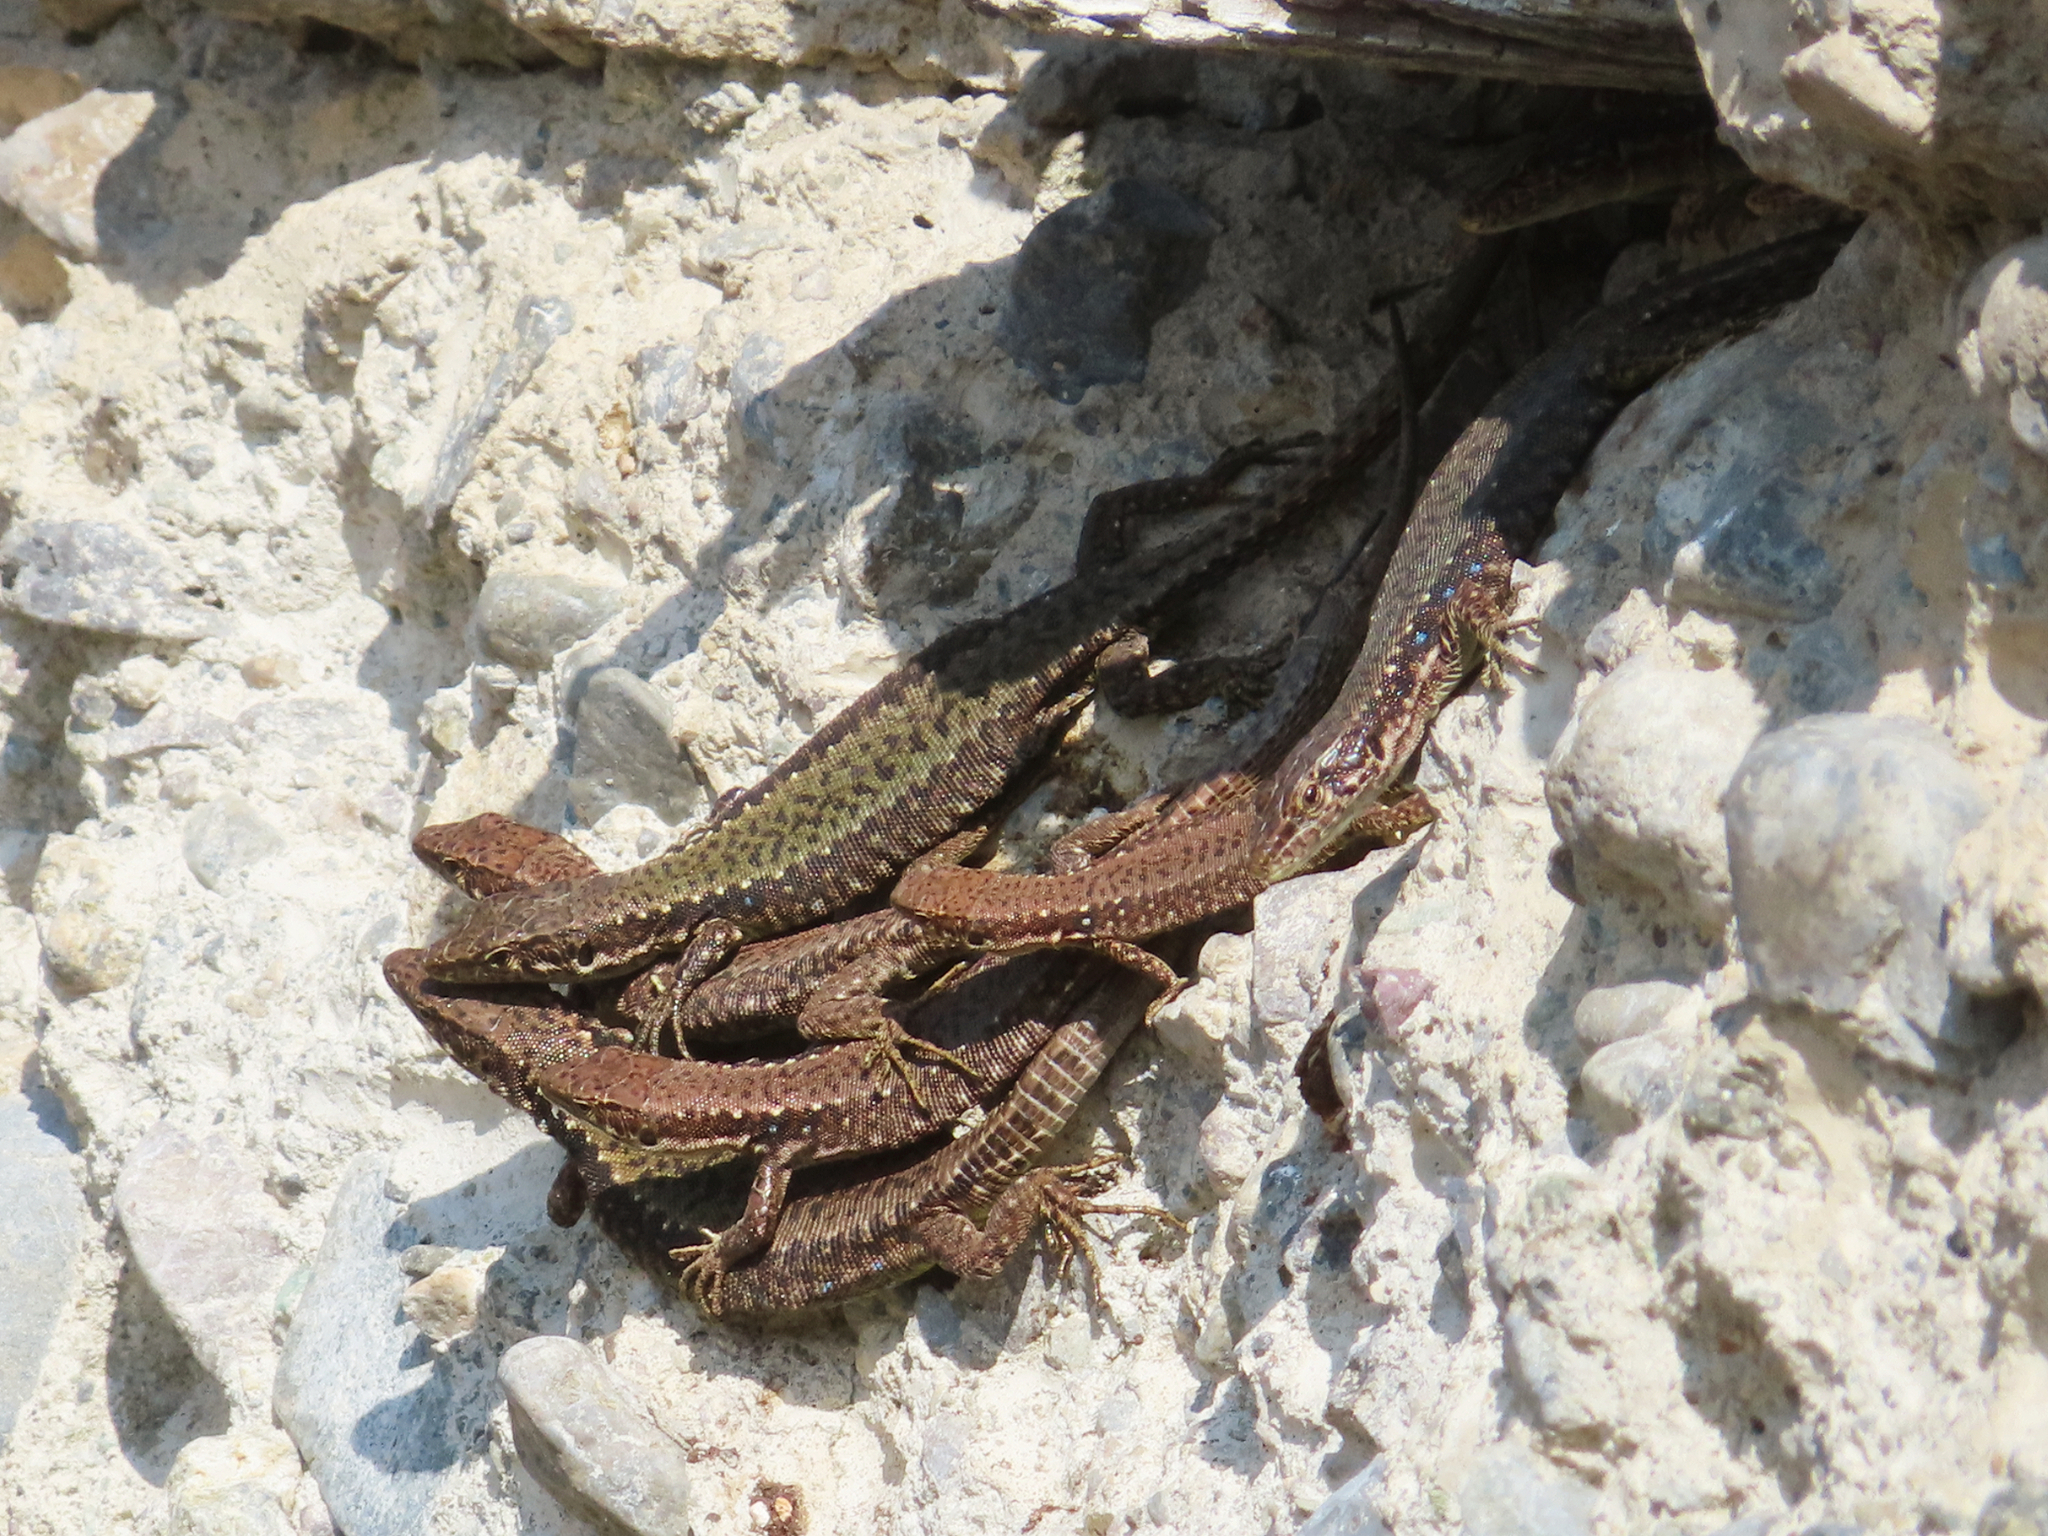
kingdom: Animalia
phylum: Chordata
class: Squamata
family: Lacertidae
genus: Darevskia
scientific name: Darevskia armeniaca
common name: Armenian lizard
